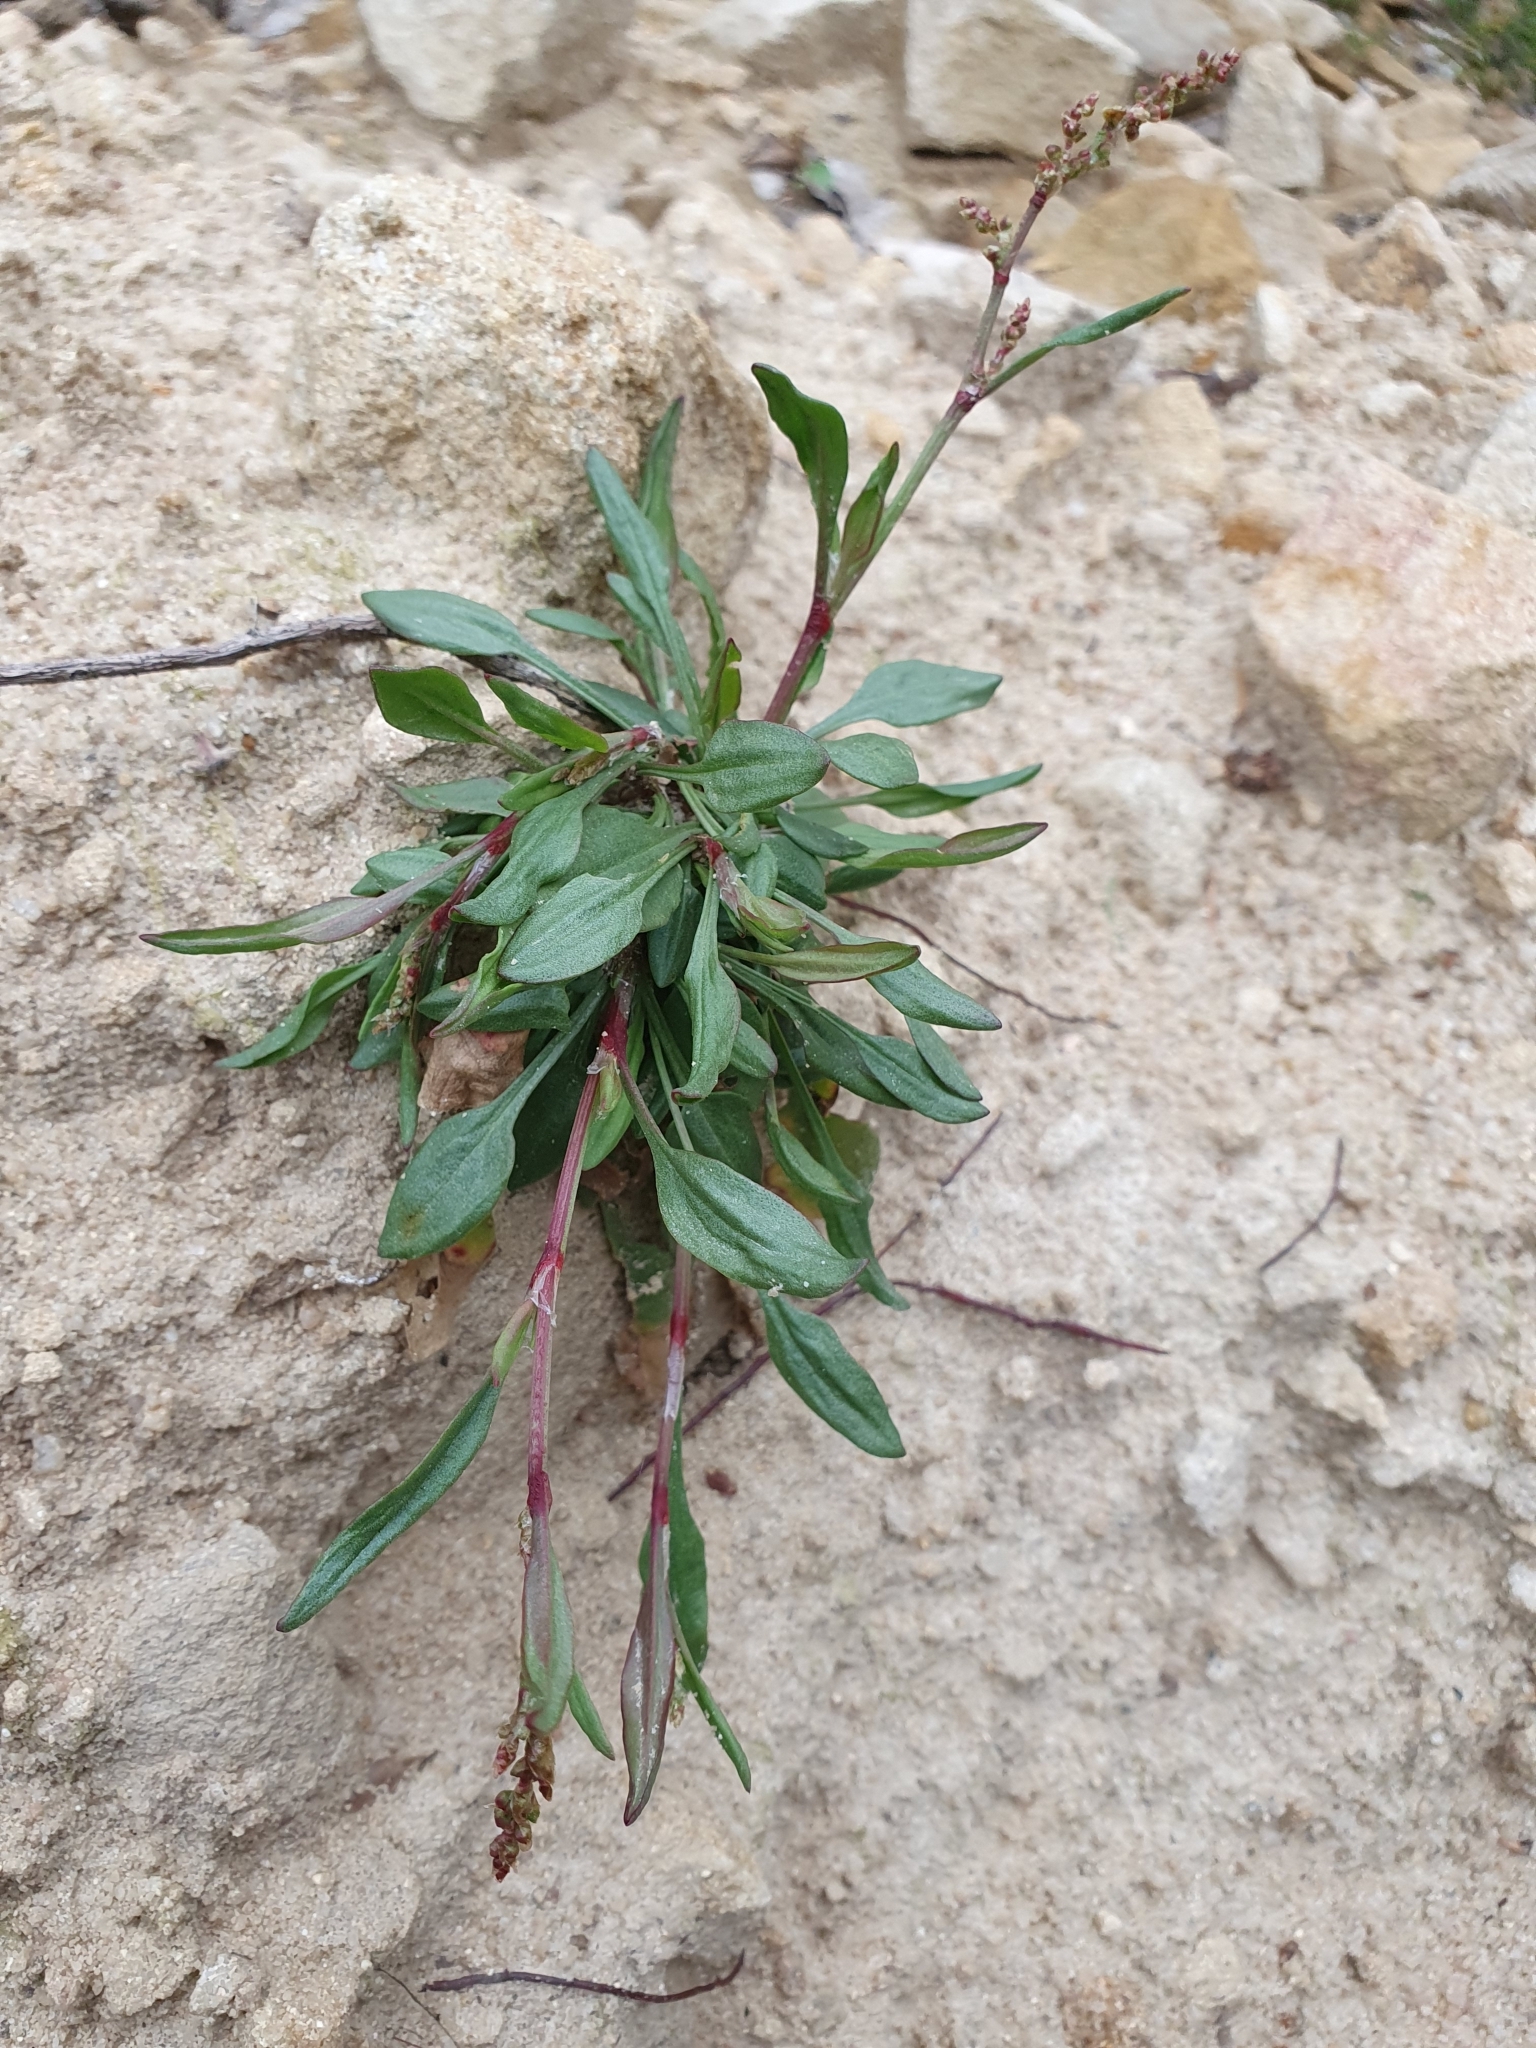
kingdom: Plantae
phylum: Tracheophyta
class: Magnoliopsida
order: Caryophyllales
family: Polygonaceae
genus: Rumex
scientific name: Rumex acetosella
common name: Common sheep sorrel
